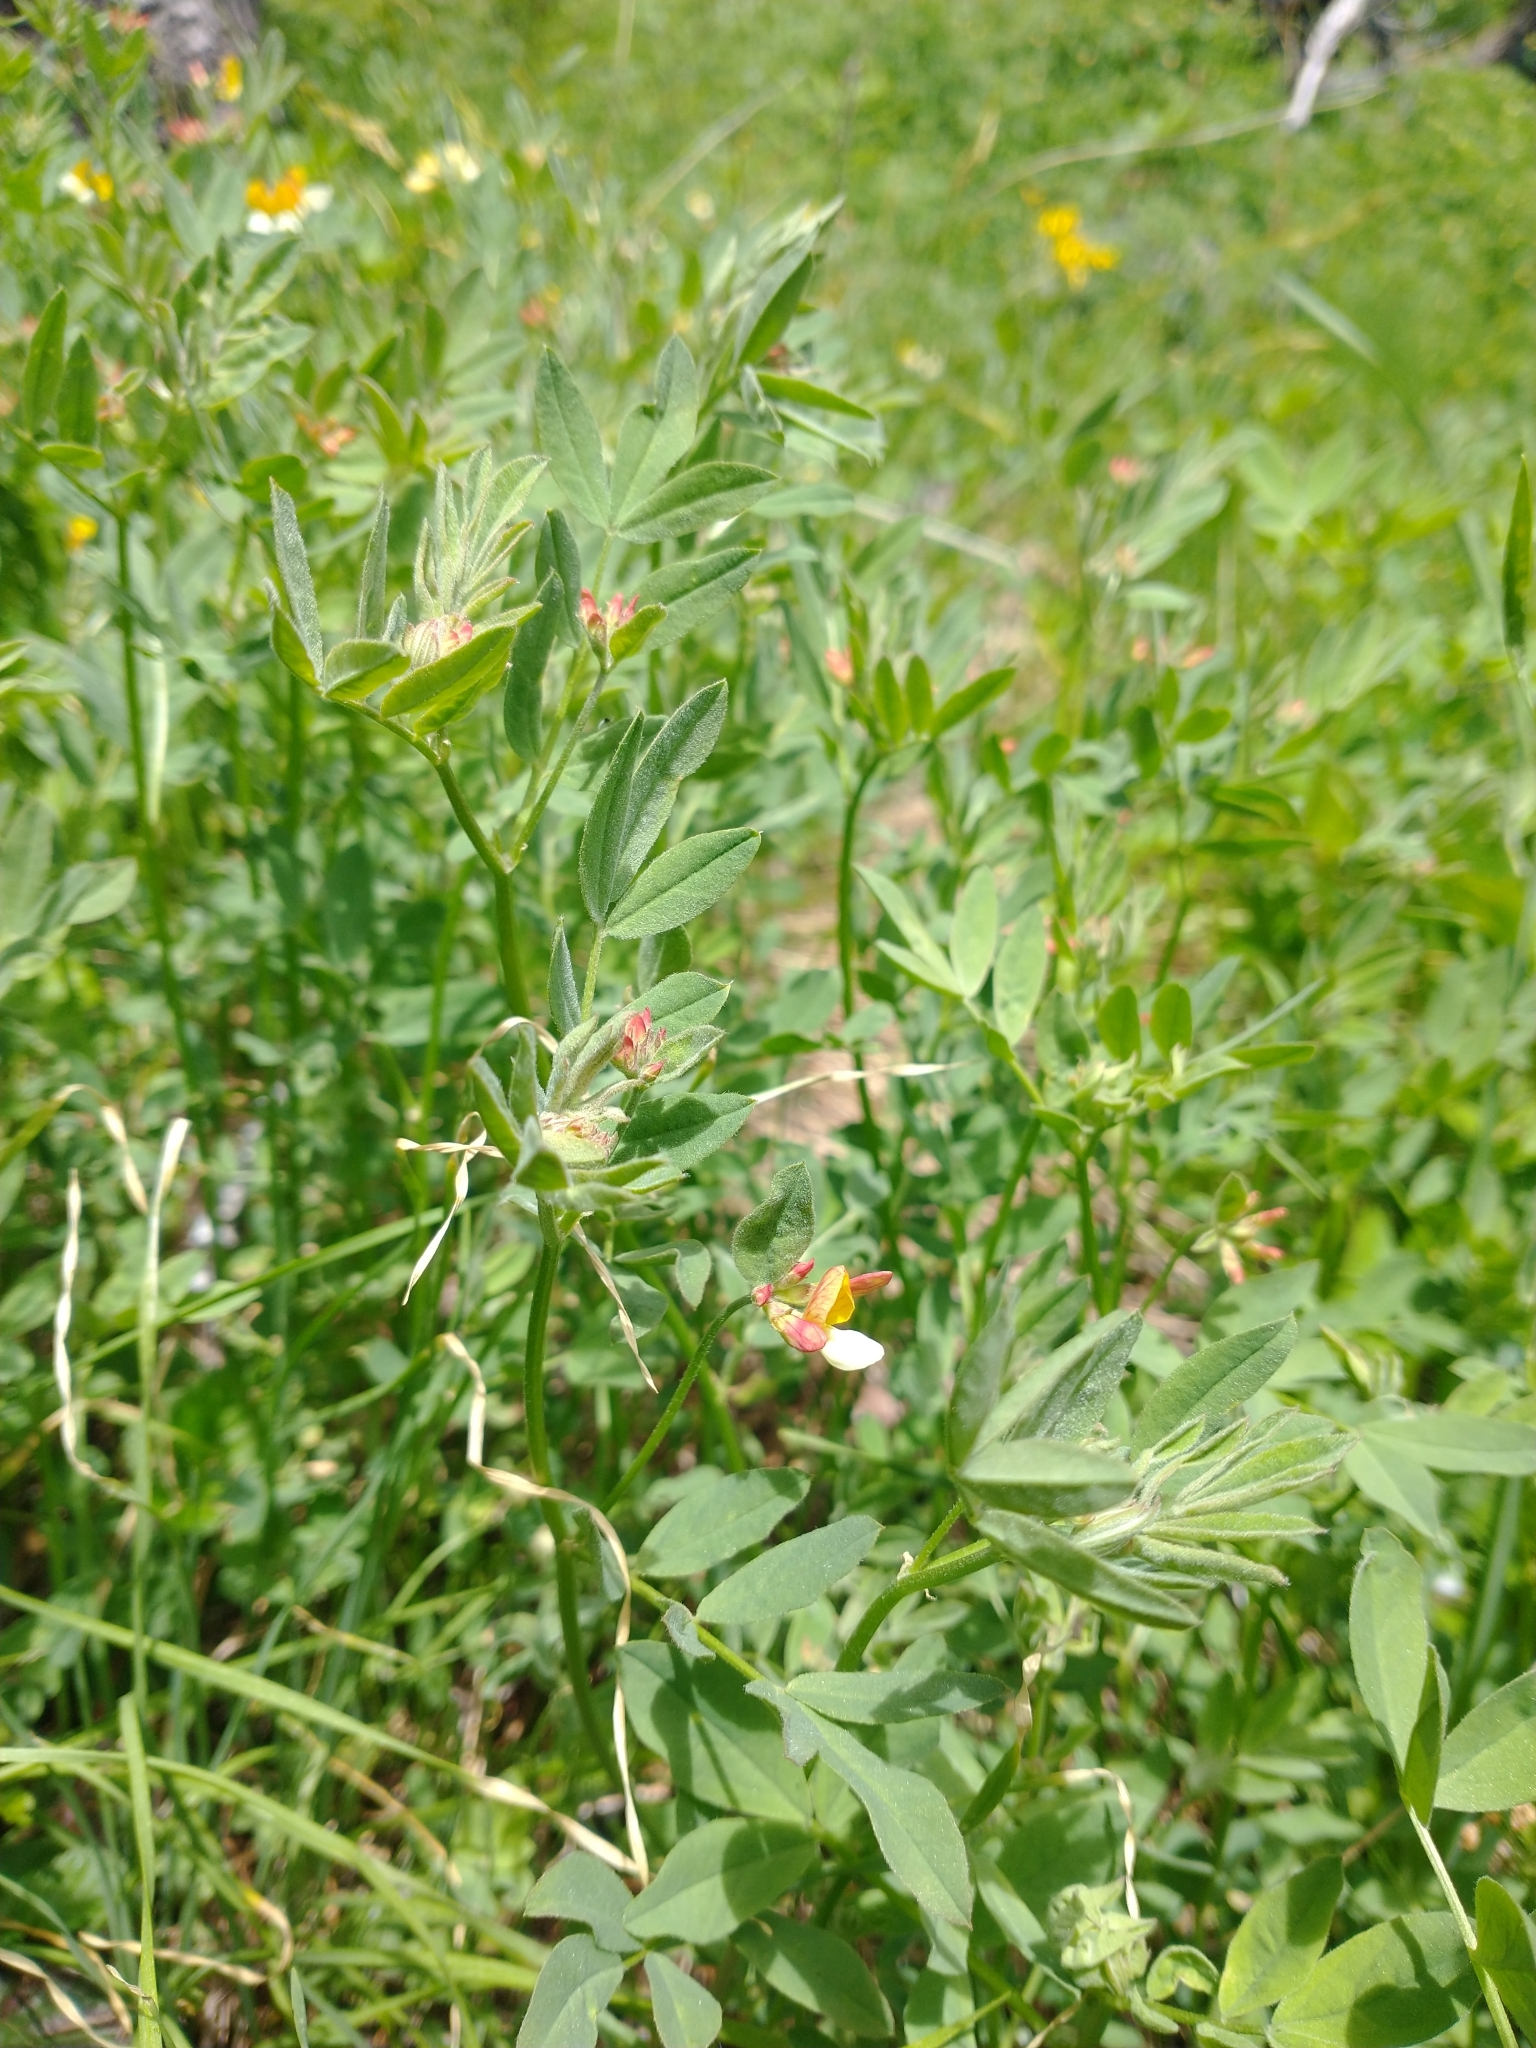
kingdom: Plantae
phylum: Tracheophyta
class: Magnoliopsida
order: Fabales
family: Fabaceae
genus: Hosackia
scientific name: Hosackia oblongifolia
